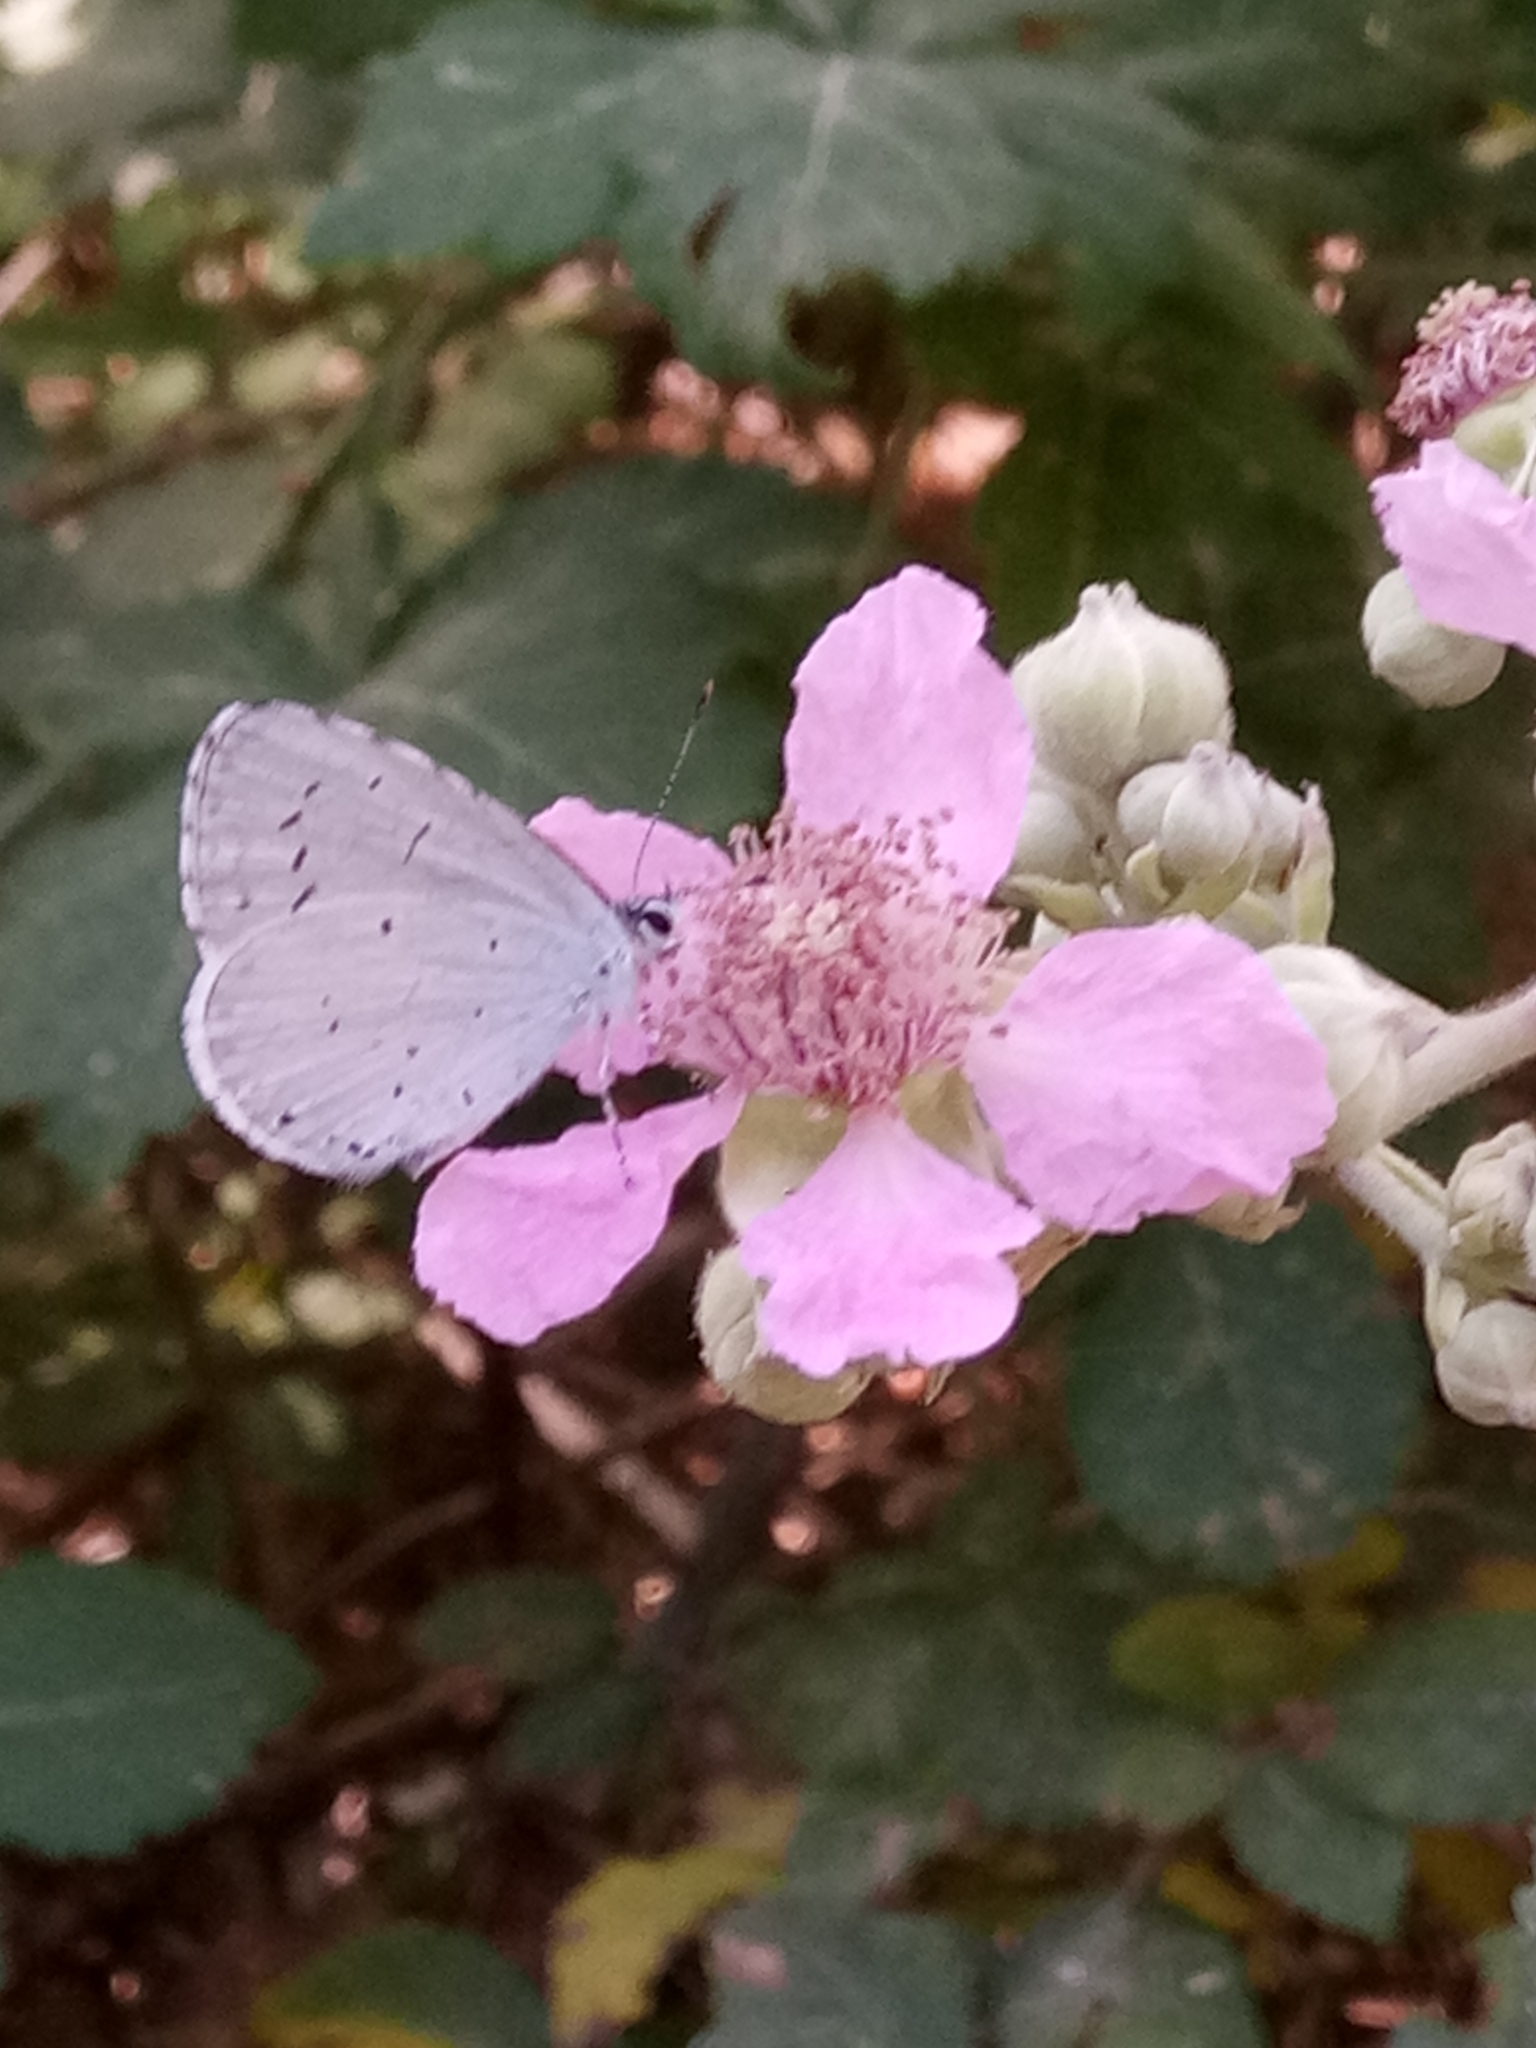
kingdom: Animalia
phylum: Arthropoda
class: Insecta
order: Lepidoptera
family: Lycaenidae
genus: Celastrina
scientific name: Celastrina argiolus
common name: Holly blue
